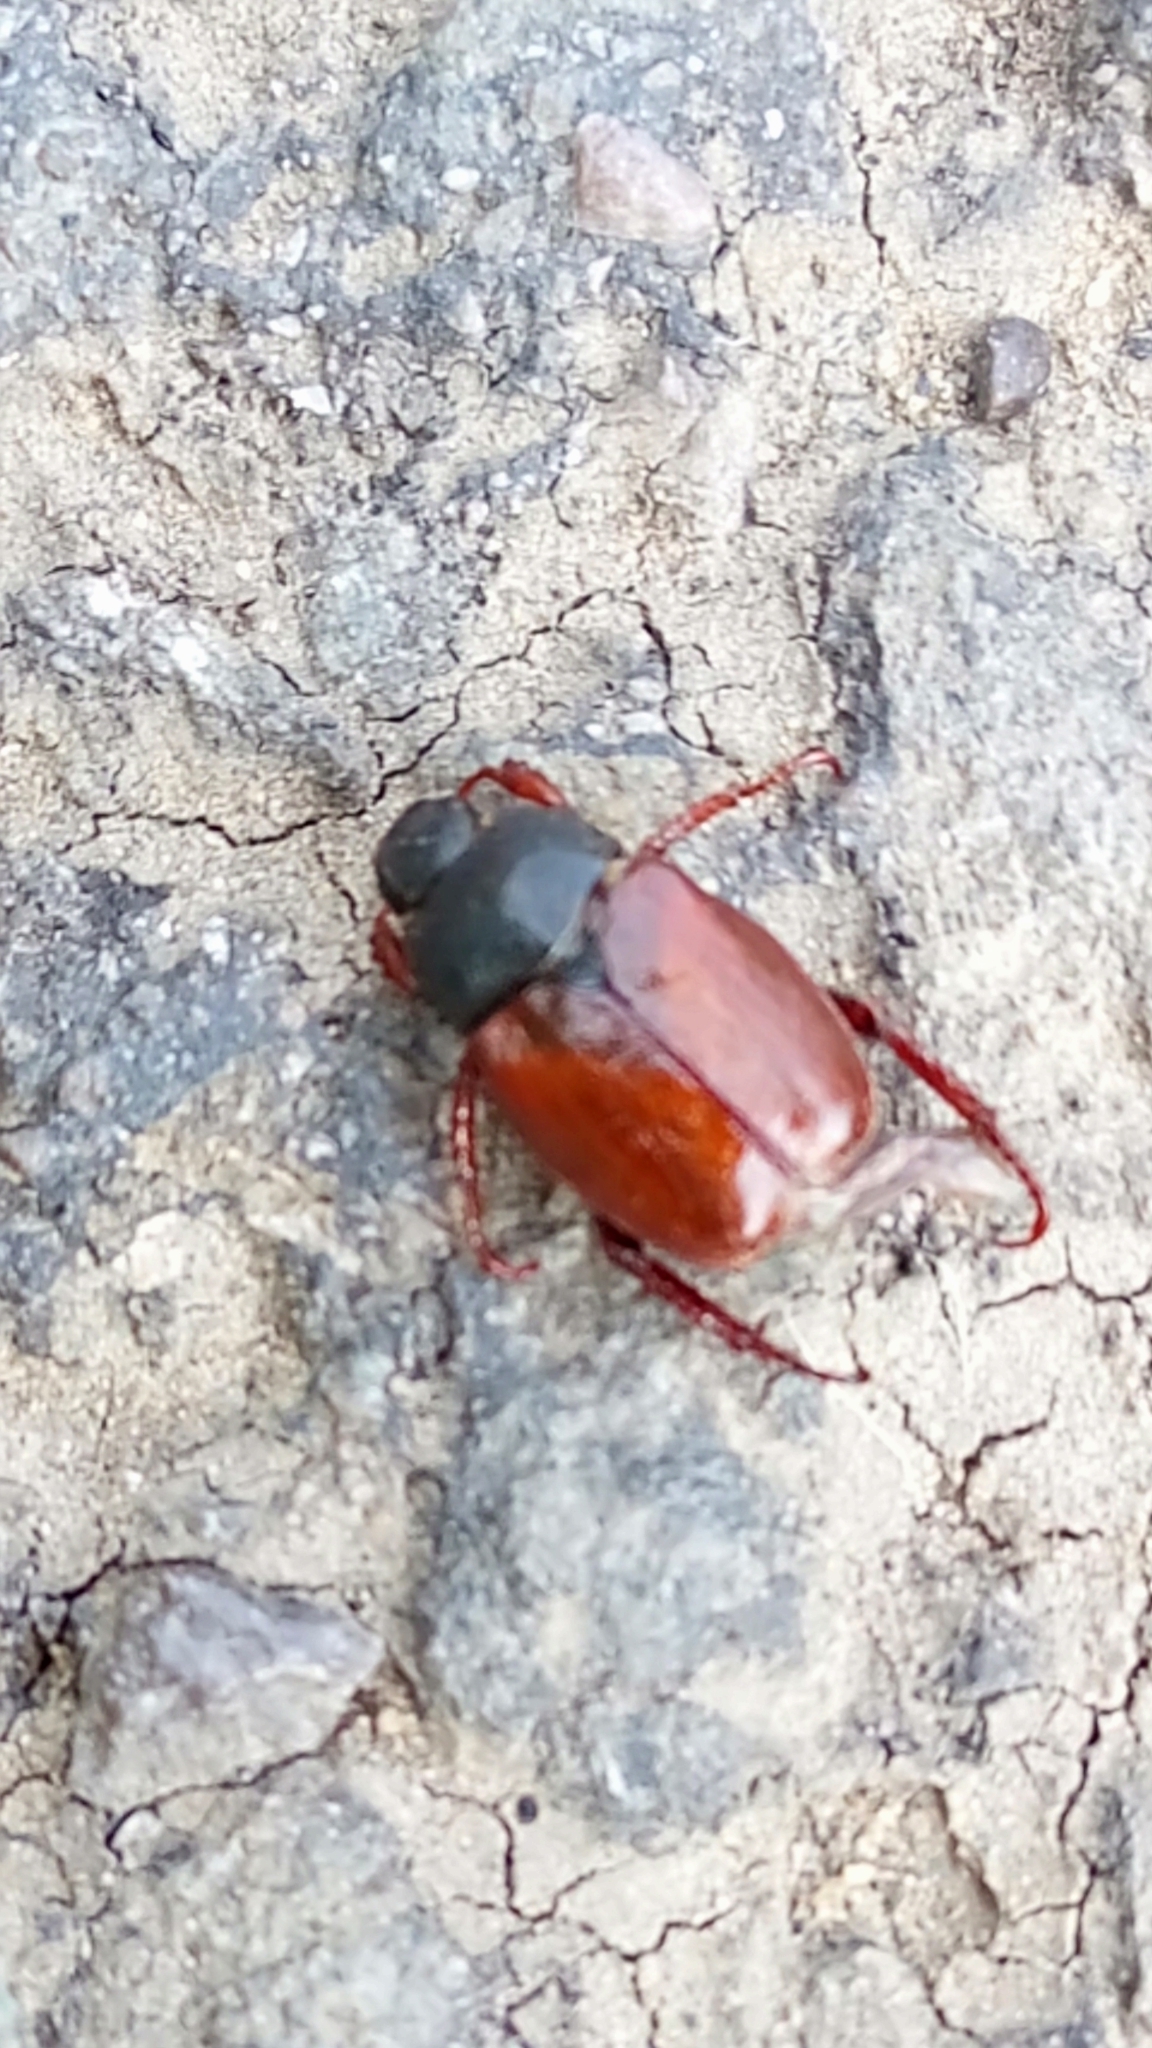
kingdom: Animalia
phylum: Arthropoda
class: Insecta
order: Coleoptera
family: Scarabaeidae
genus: Hoplia
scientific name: Hoplia philanthus
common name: Welsh chafer
